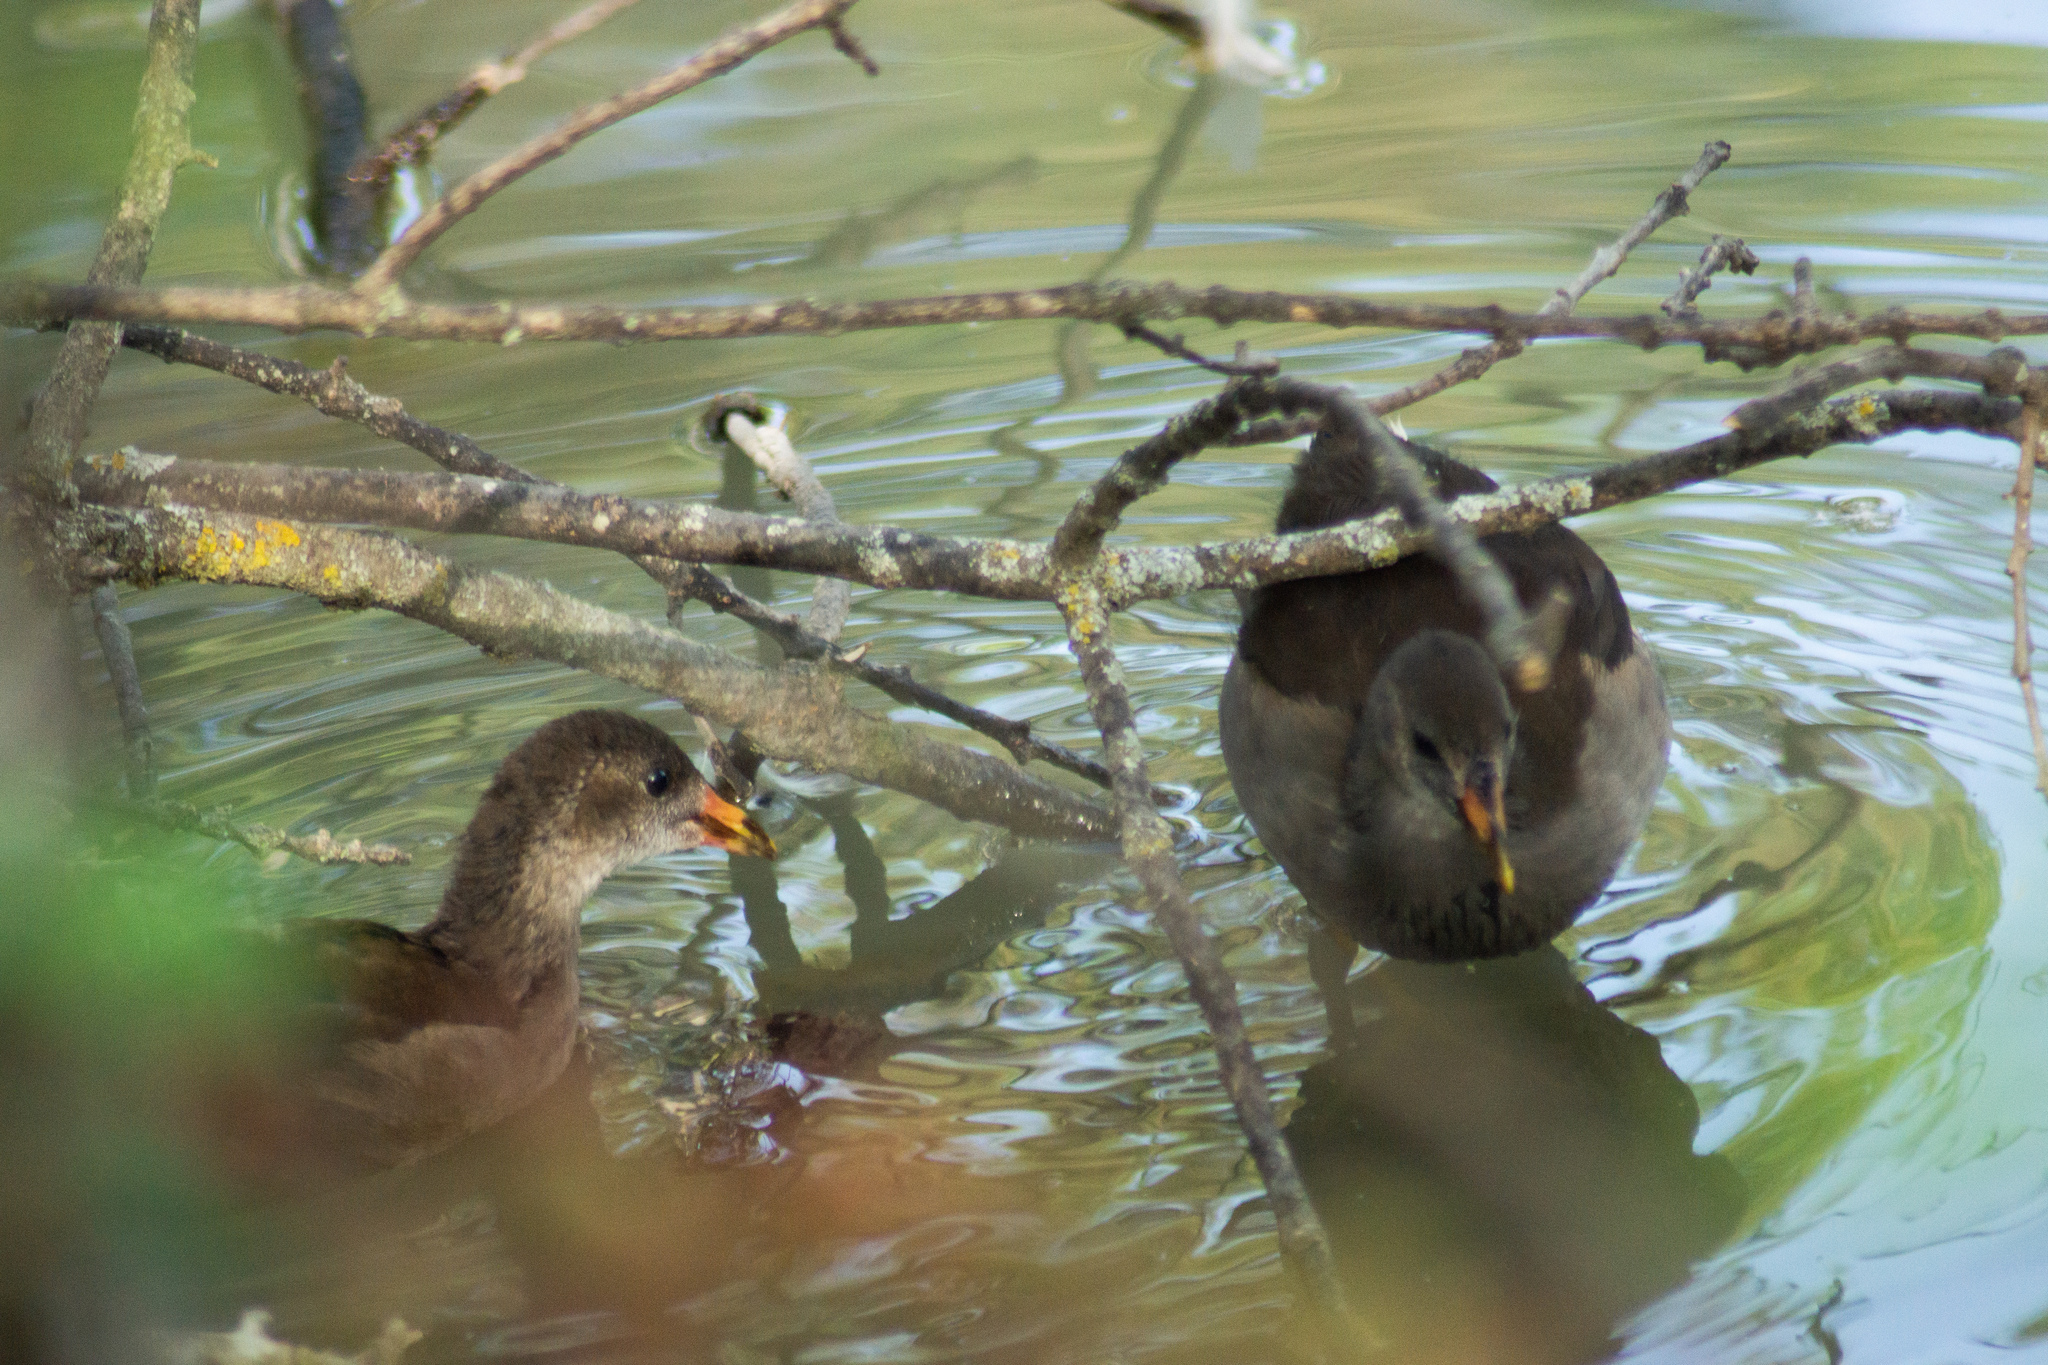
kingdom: Animalia
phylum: Chordata
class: Aves
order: Gruiformes
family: Rallidae
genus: Gallinula
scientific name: Gallinula chloropus
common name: Common moorhen
